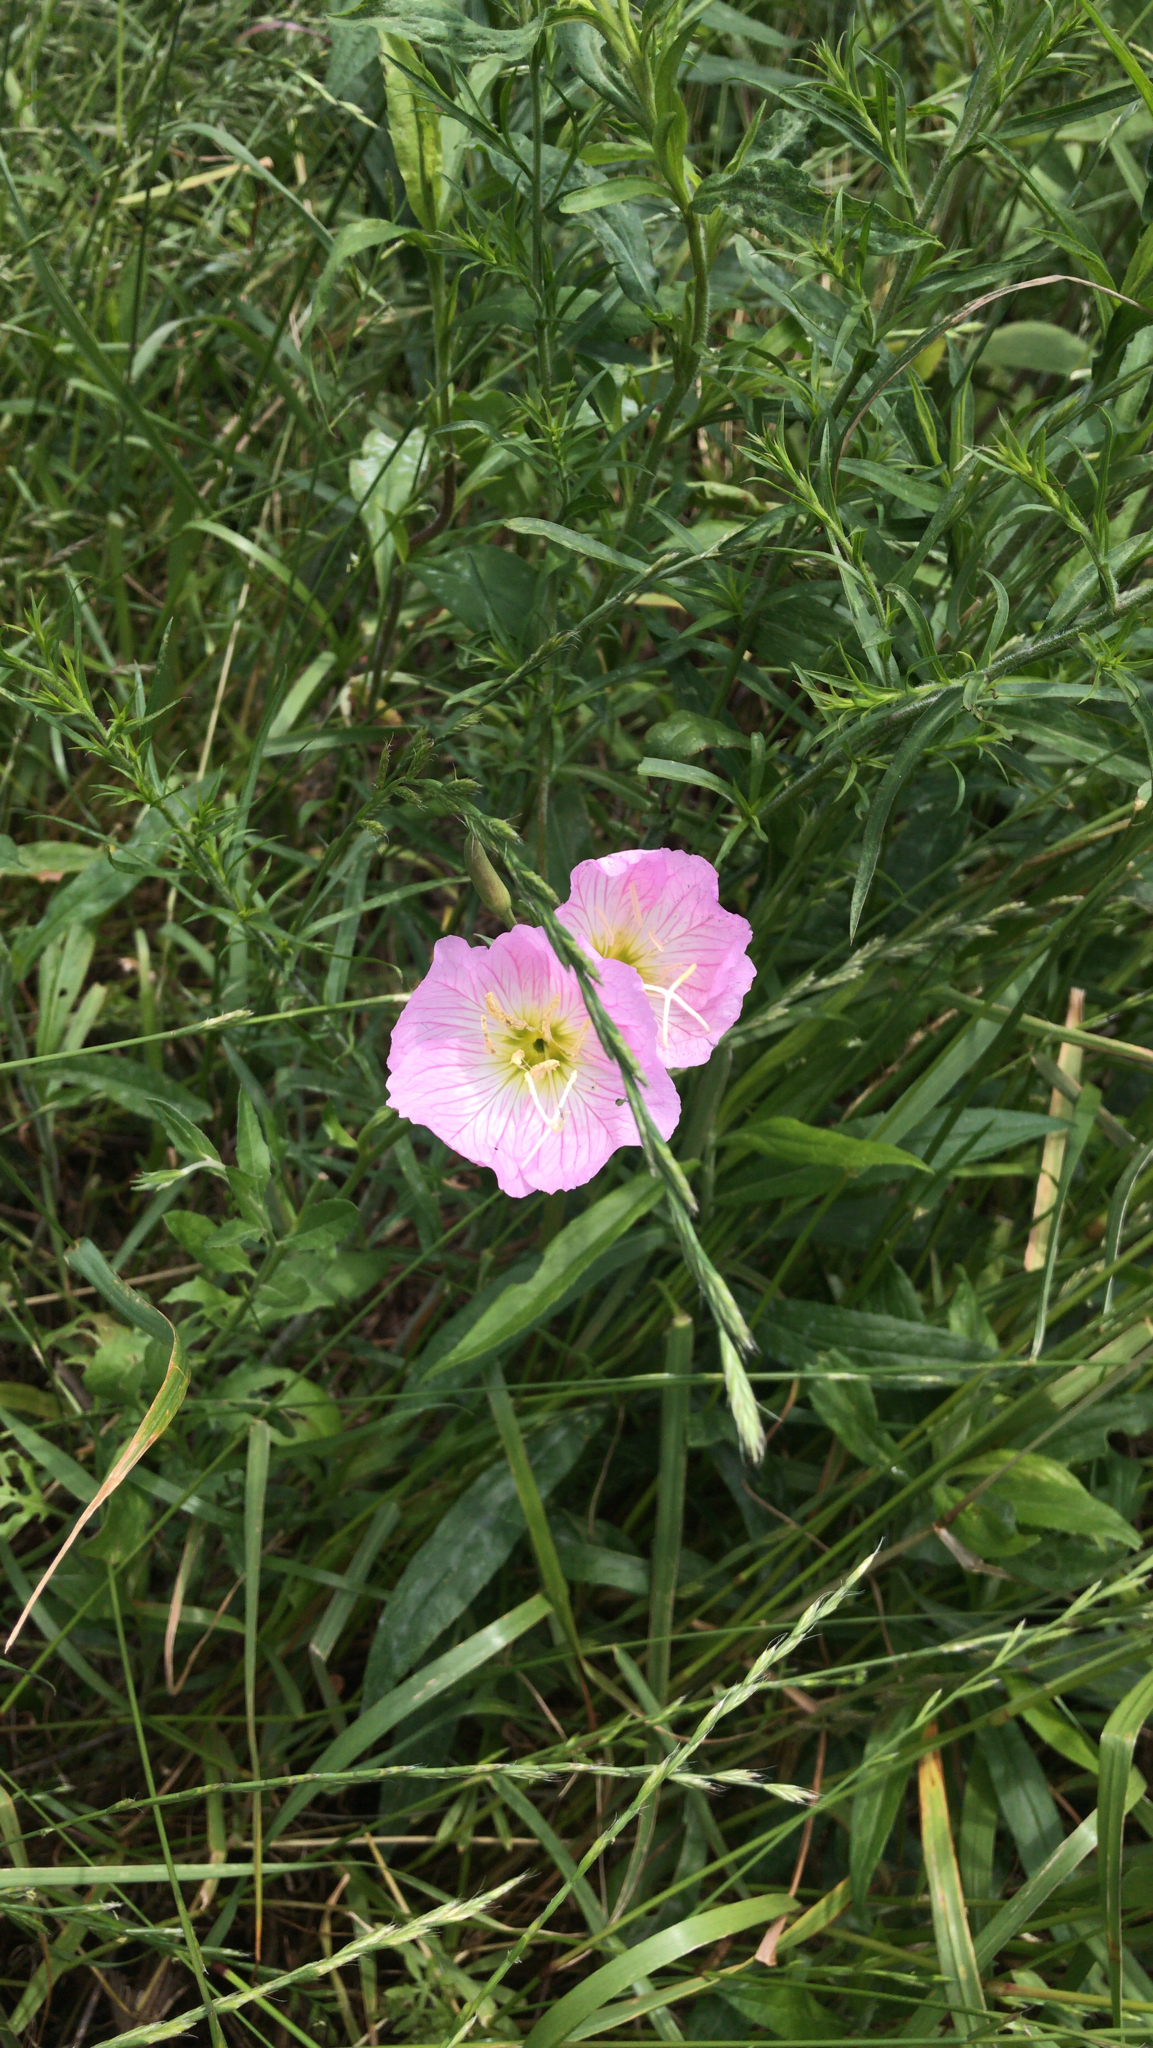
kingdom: Plantae
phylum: Tracheophyta
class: Magnoliopsida
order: Myrtales
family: Onagraceae
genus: Oenothera
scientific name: Oenothera speciosa
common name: White evening-primrose
